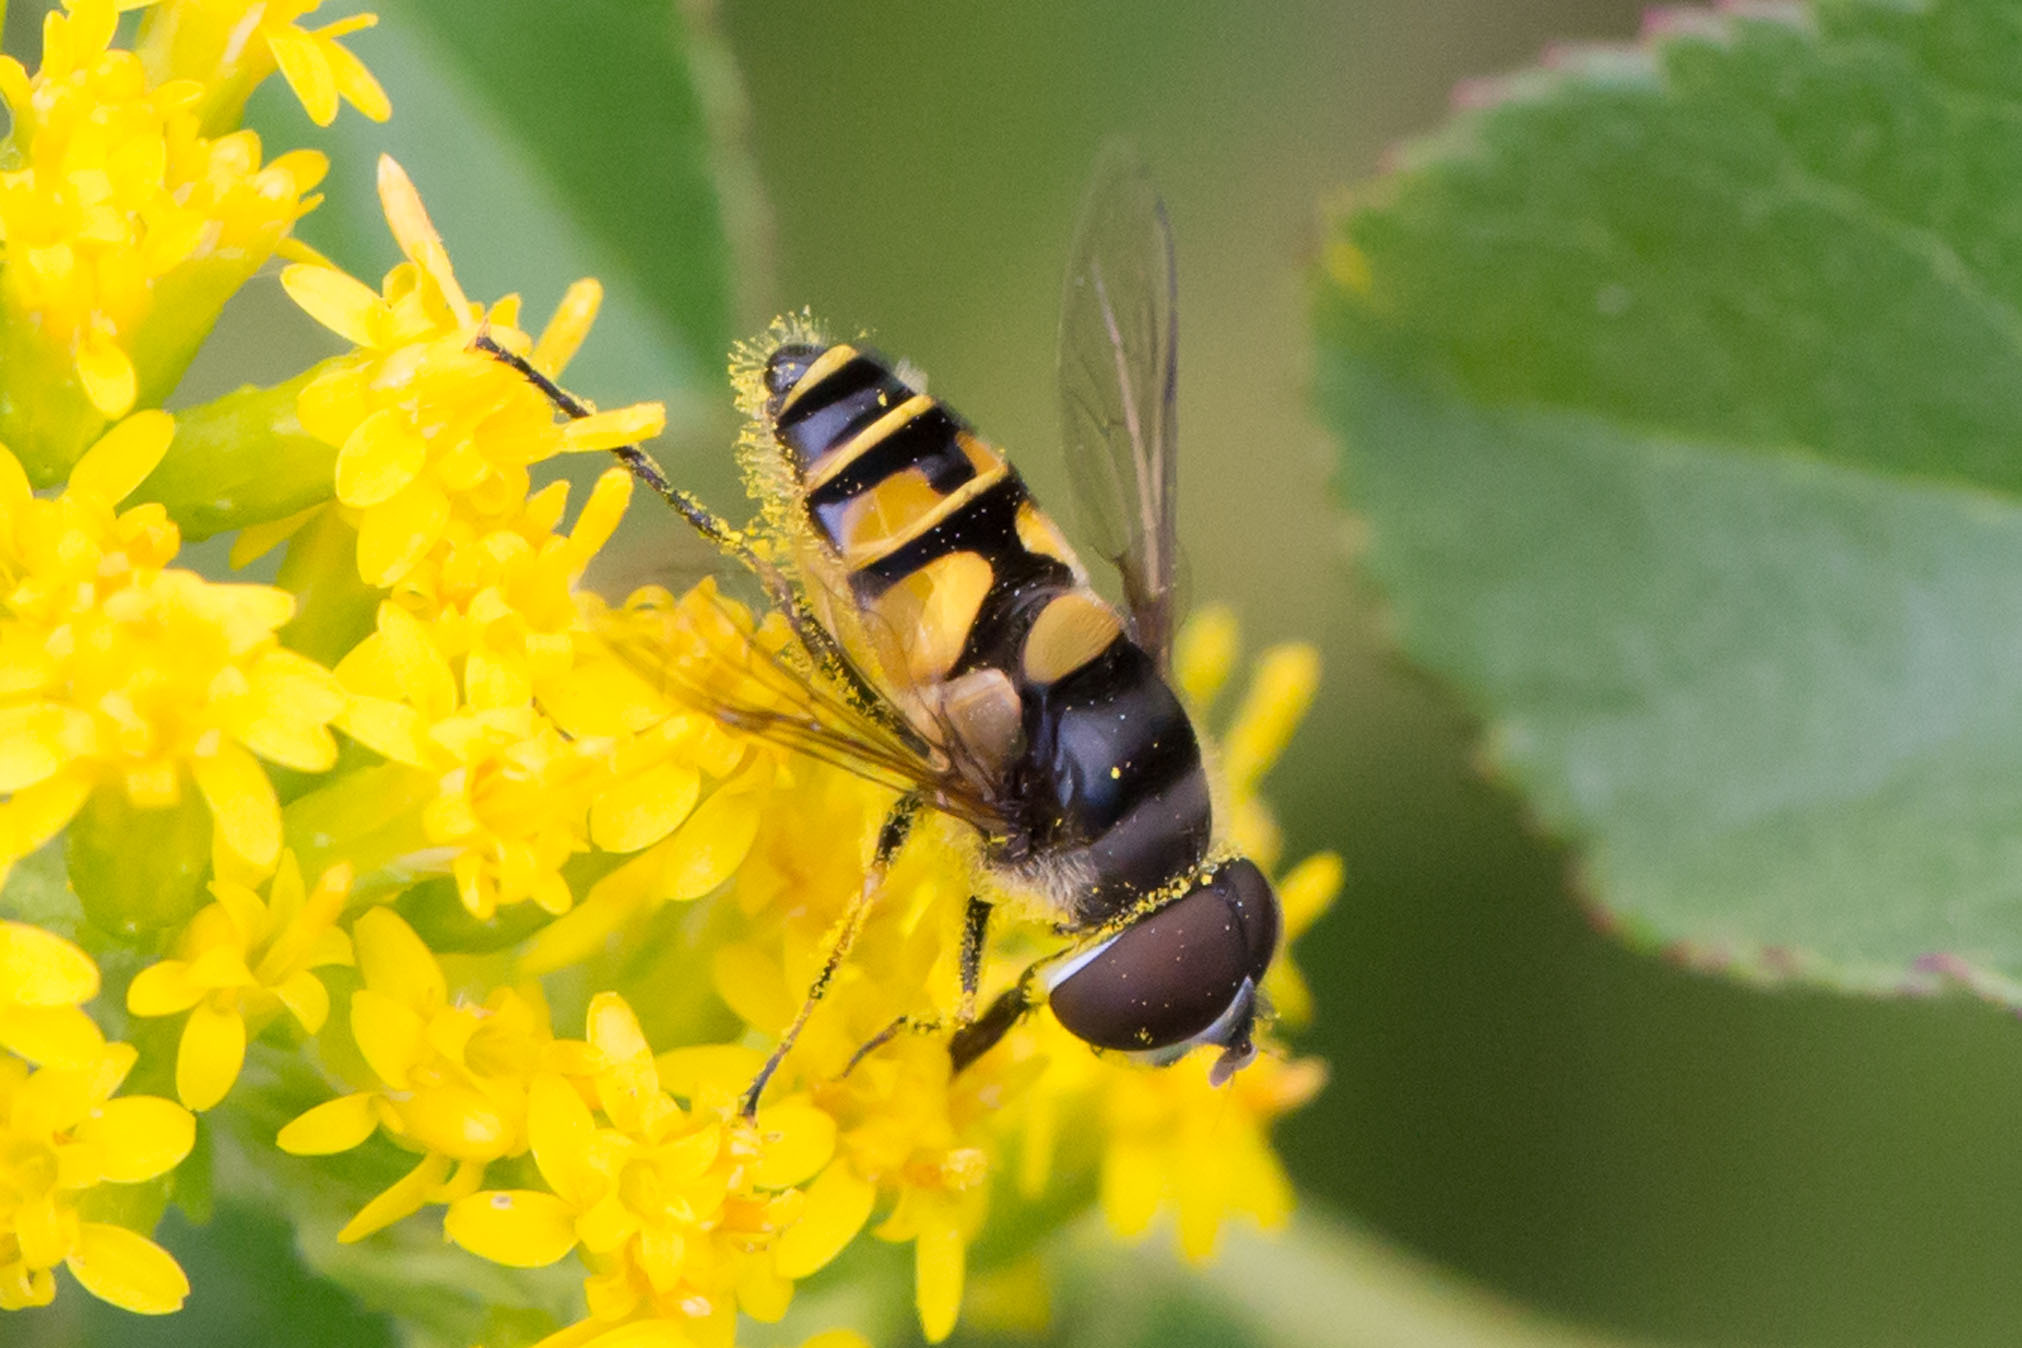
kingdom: Animalia
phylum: Arthropoda
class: Insecta
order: Diptera
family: Syrphidae
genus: Eristalis
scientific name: Eristalis transversa
